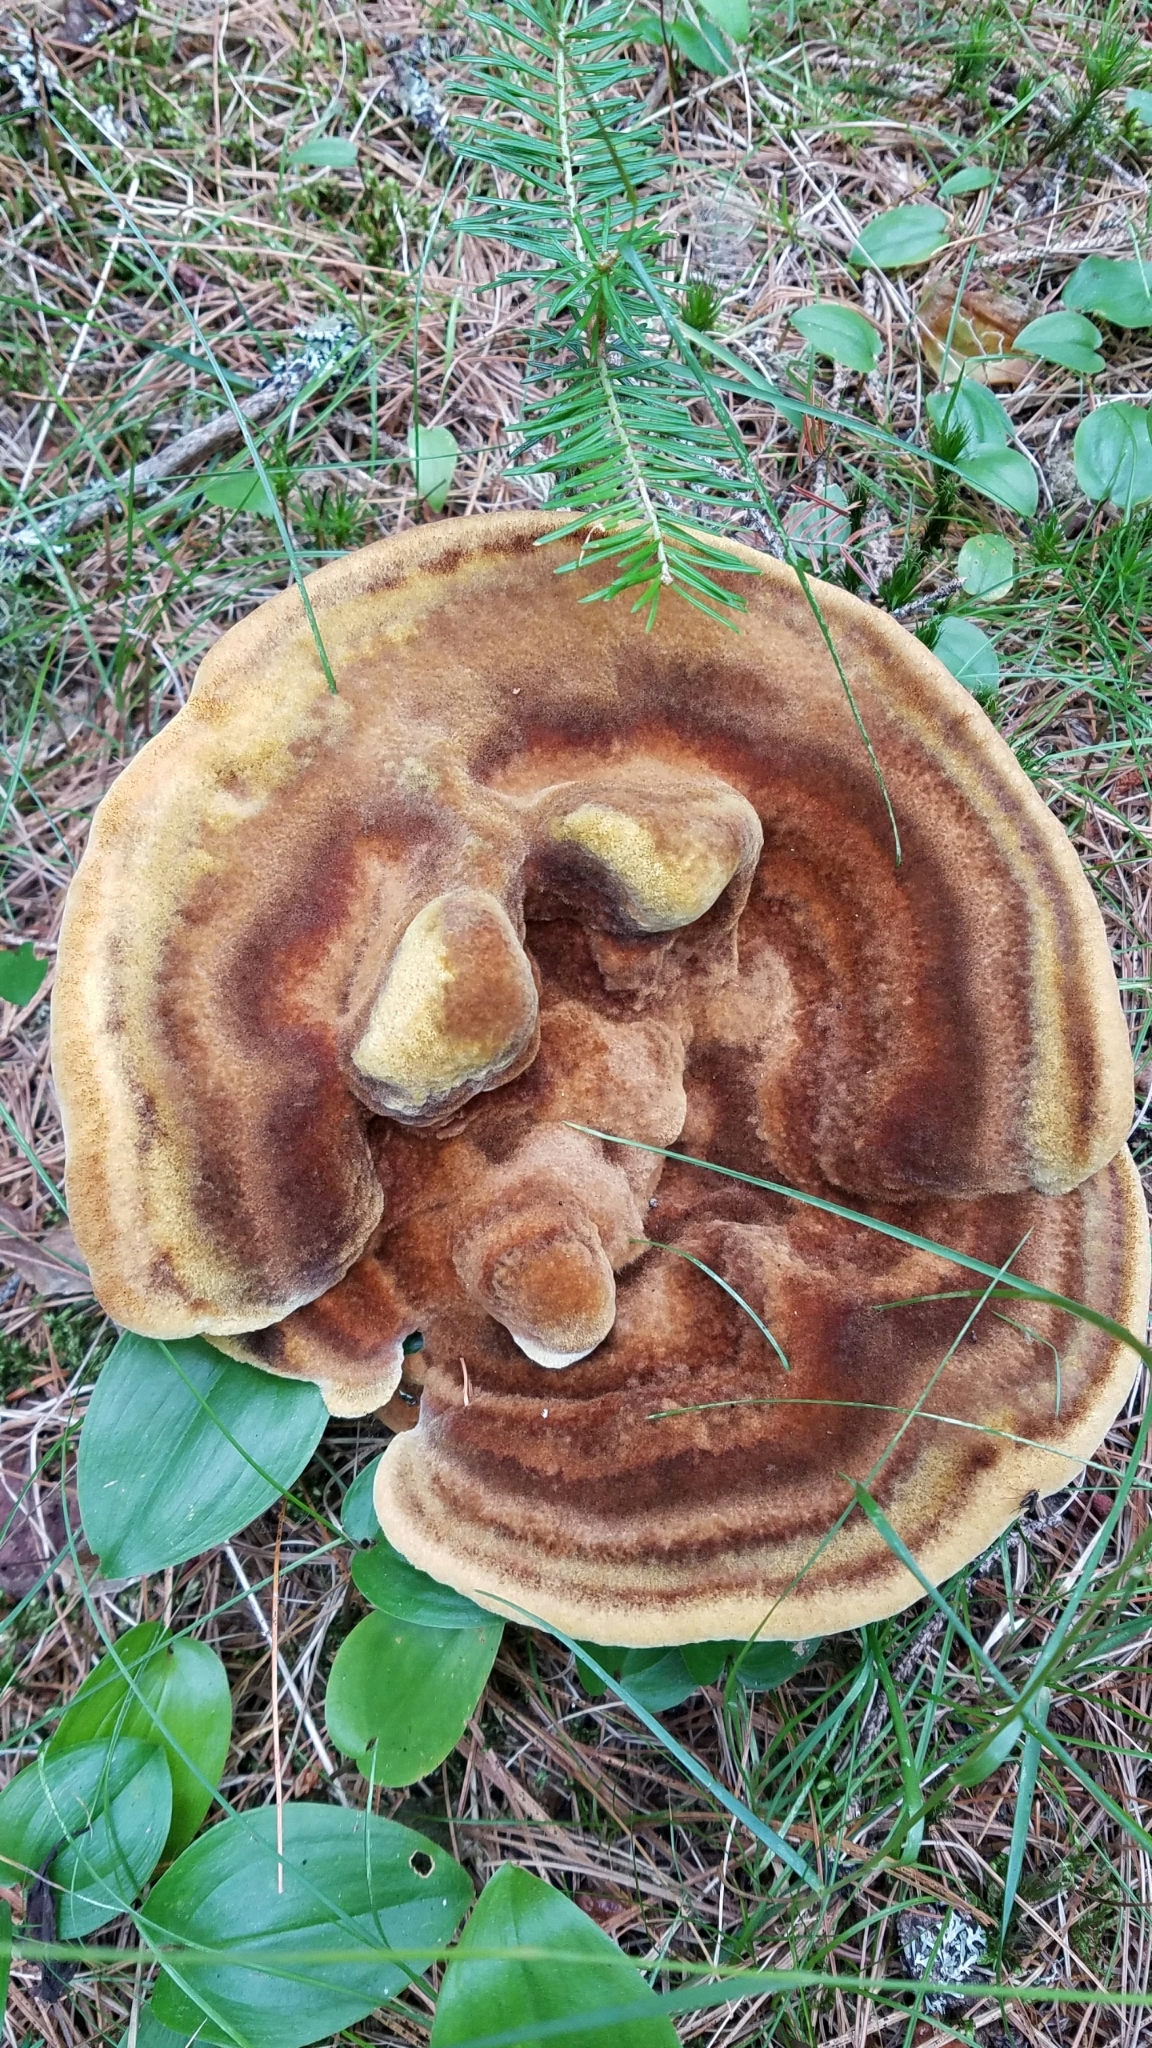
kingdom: Fungi
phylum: Basidiomycota
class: Agaricomycetes
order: Polyporales
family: Laetiporaceae
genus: Phaeolus
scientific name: Phaeolus schweinitzii
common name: Dyer's mazegill
